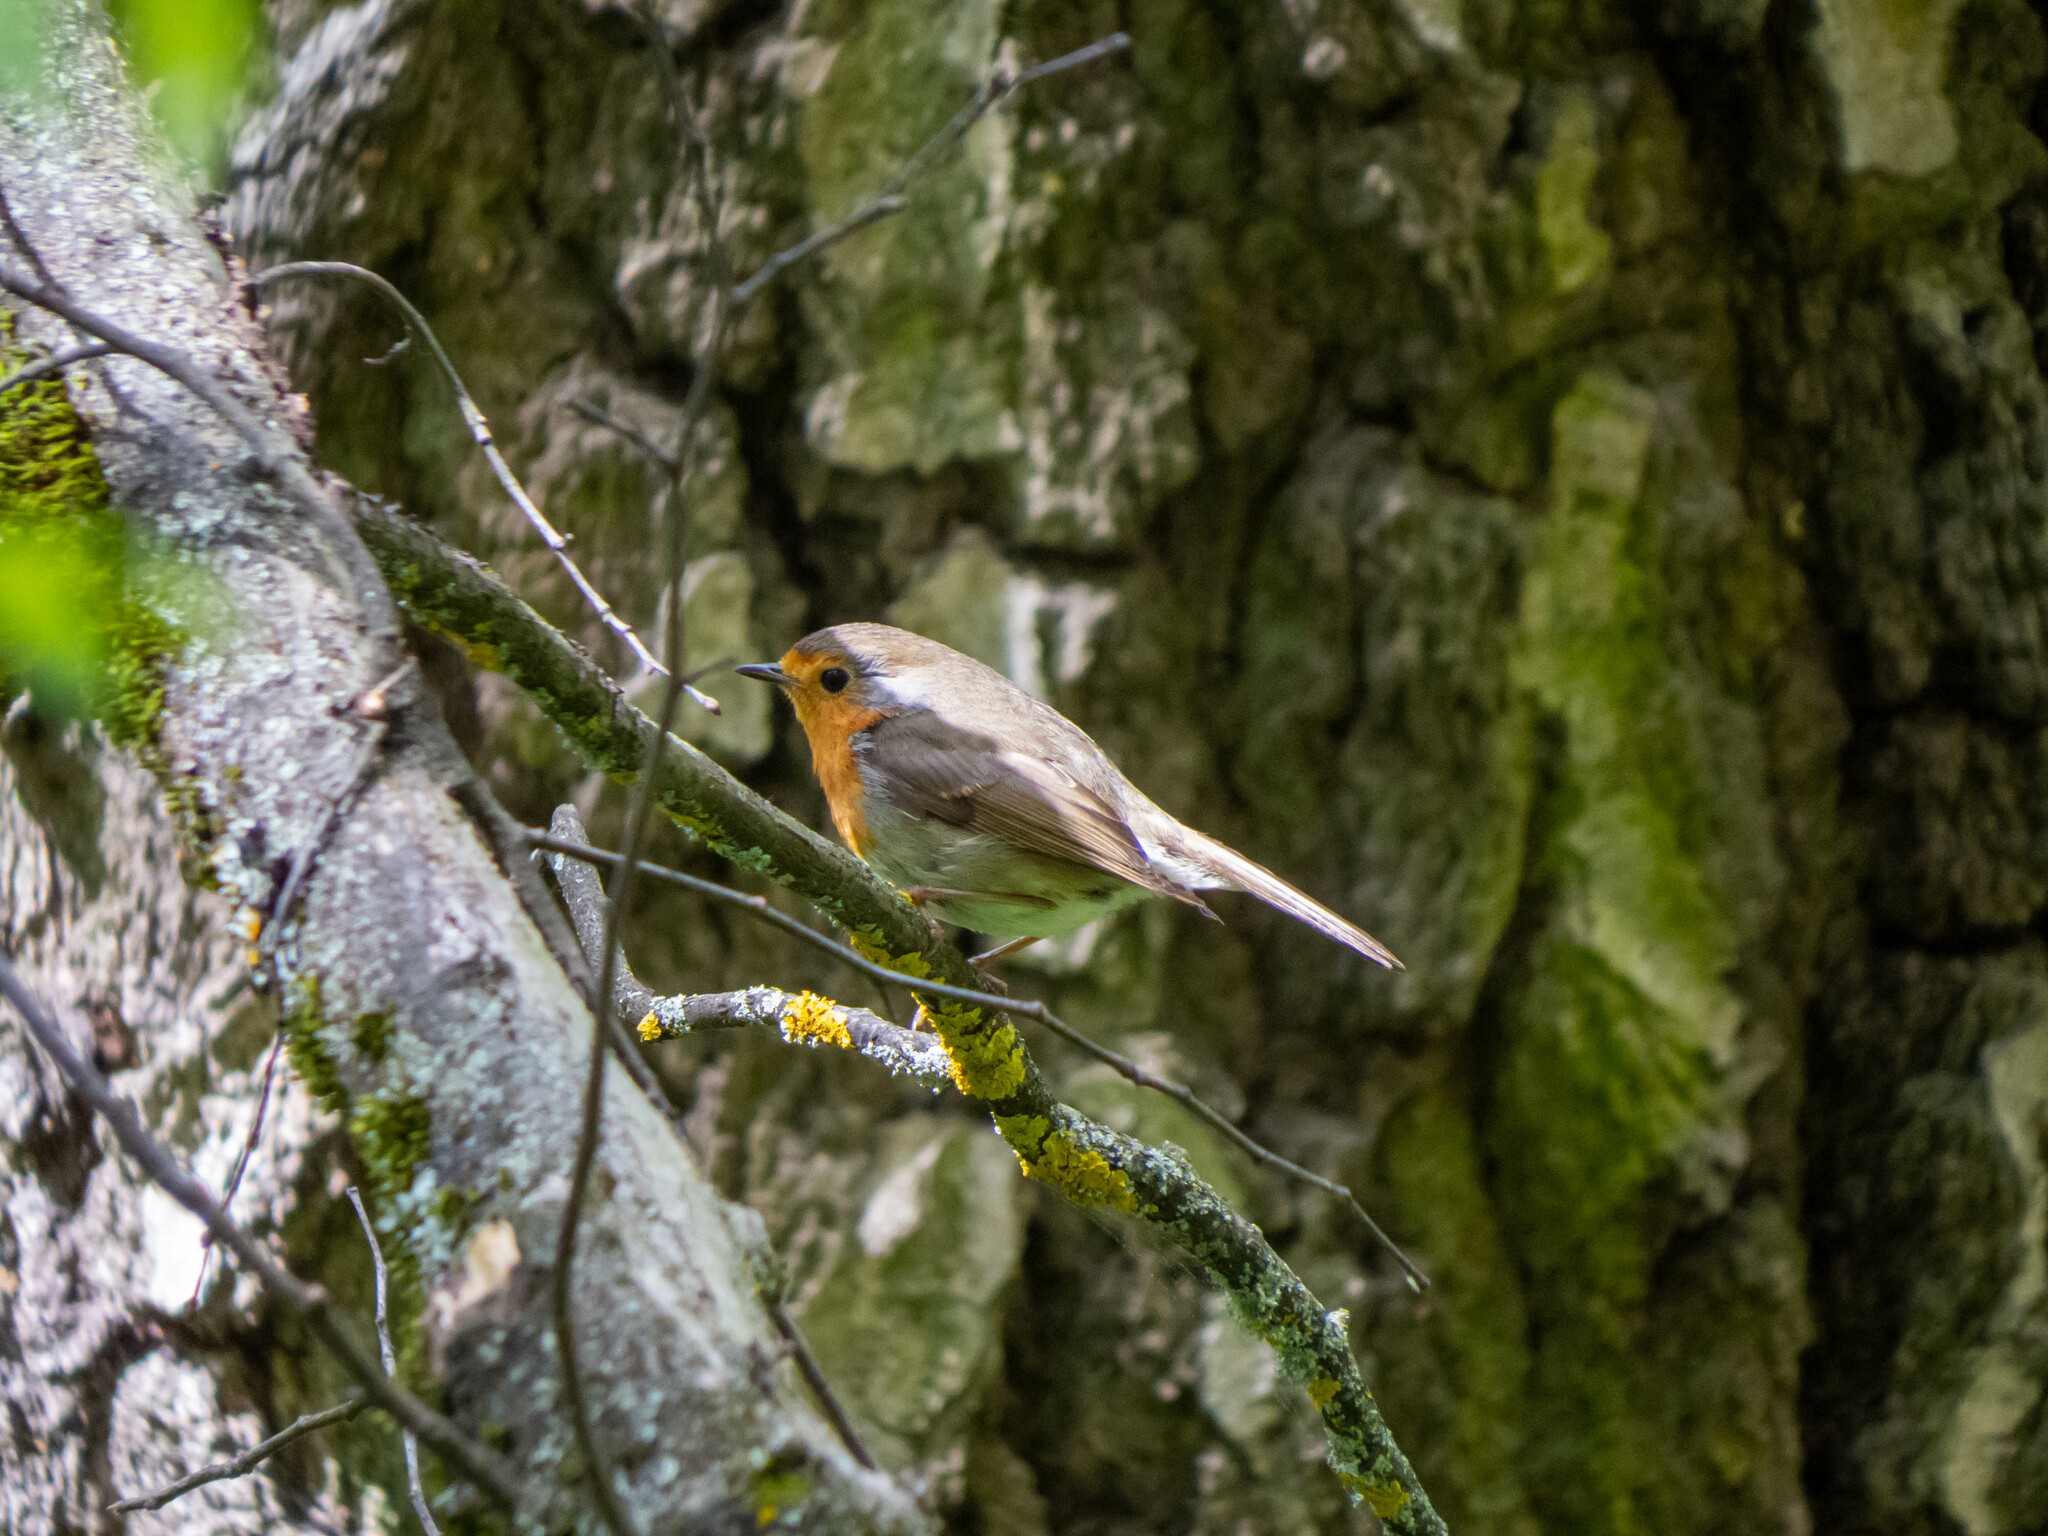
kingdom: Animalia
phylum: Chordata
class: Aves
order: Passeriformes
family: Muscicapidae
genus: Erithacus
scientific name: Erithacus rubecula
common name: European robin
